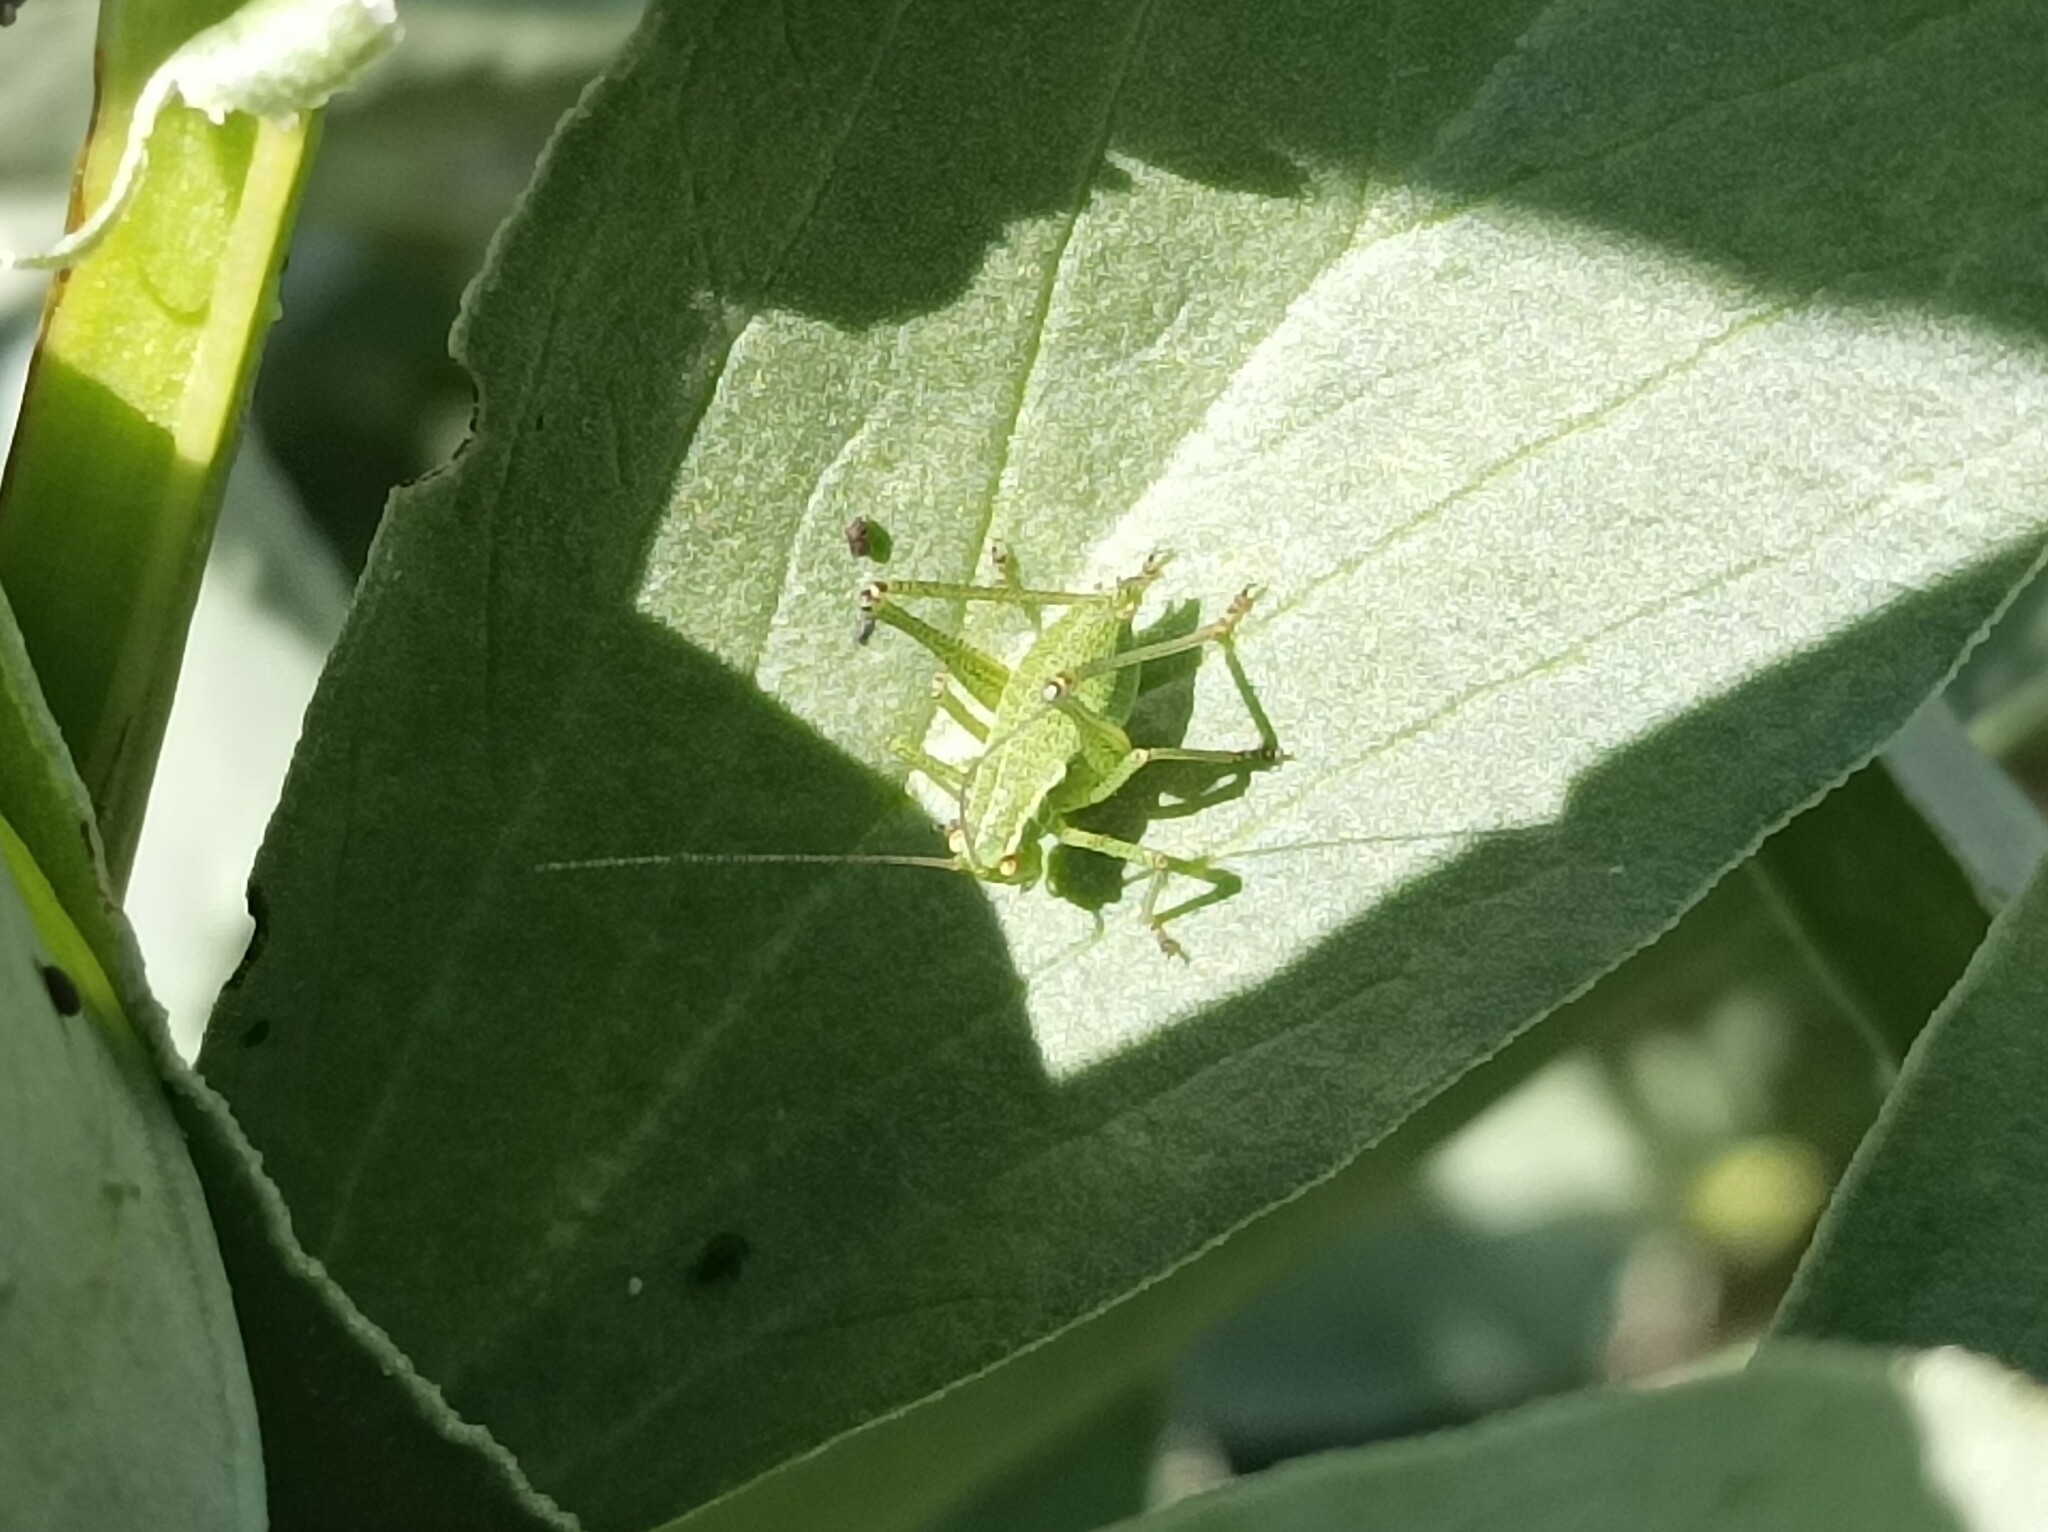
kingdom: Animalia
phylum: Arthropoda
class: Insecta
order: Orthoptera
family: Tettigoniidae
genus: Leptophyes
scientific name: Leptophyes punctatissima
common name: Speckled bush-cricket
